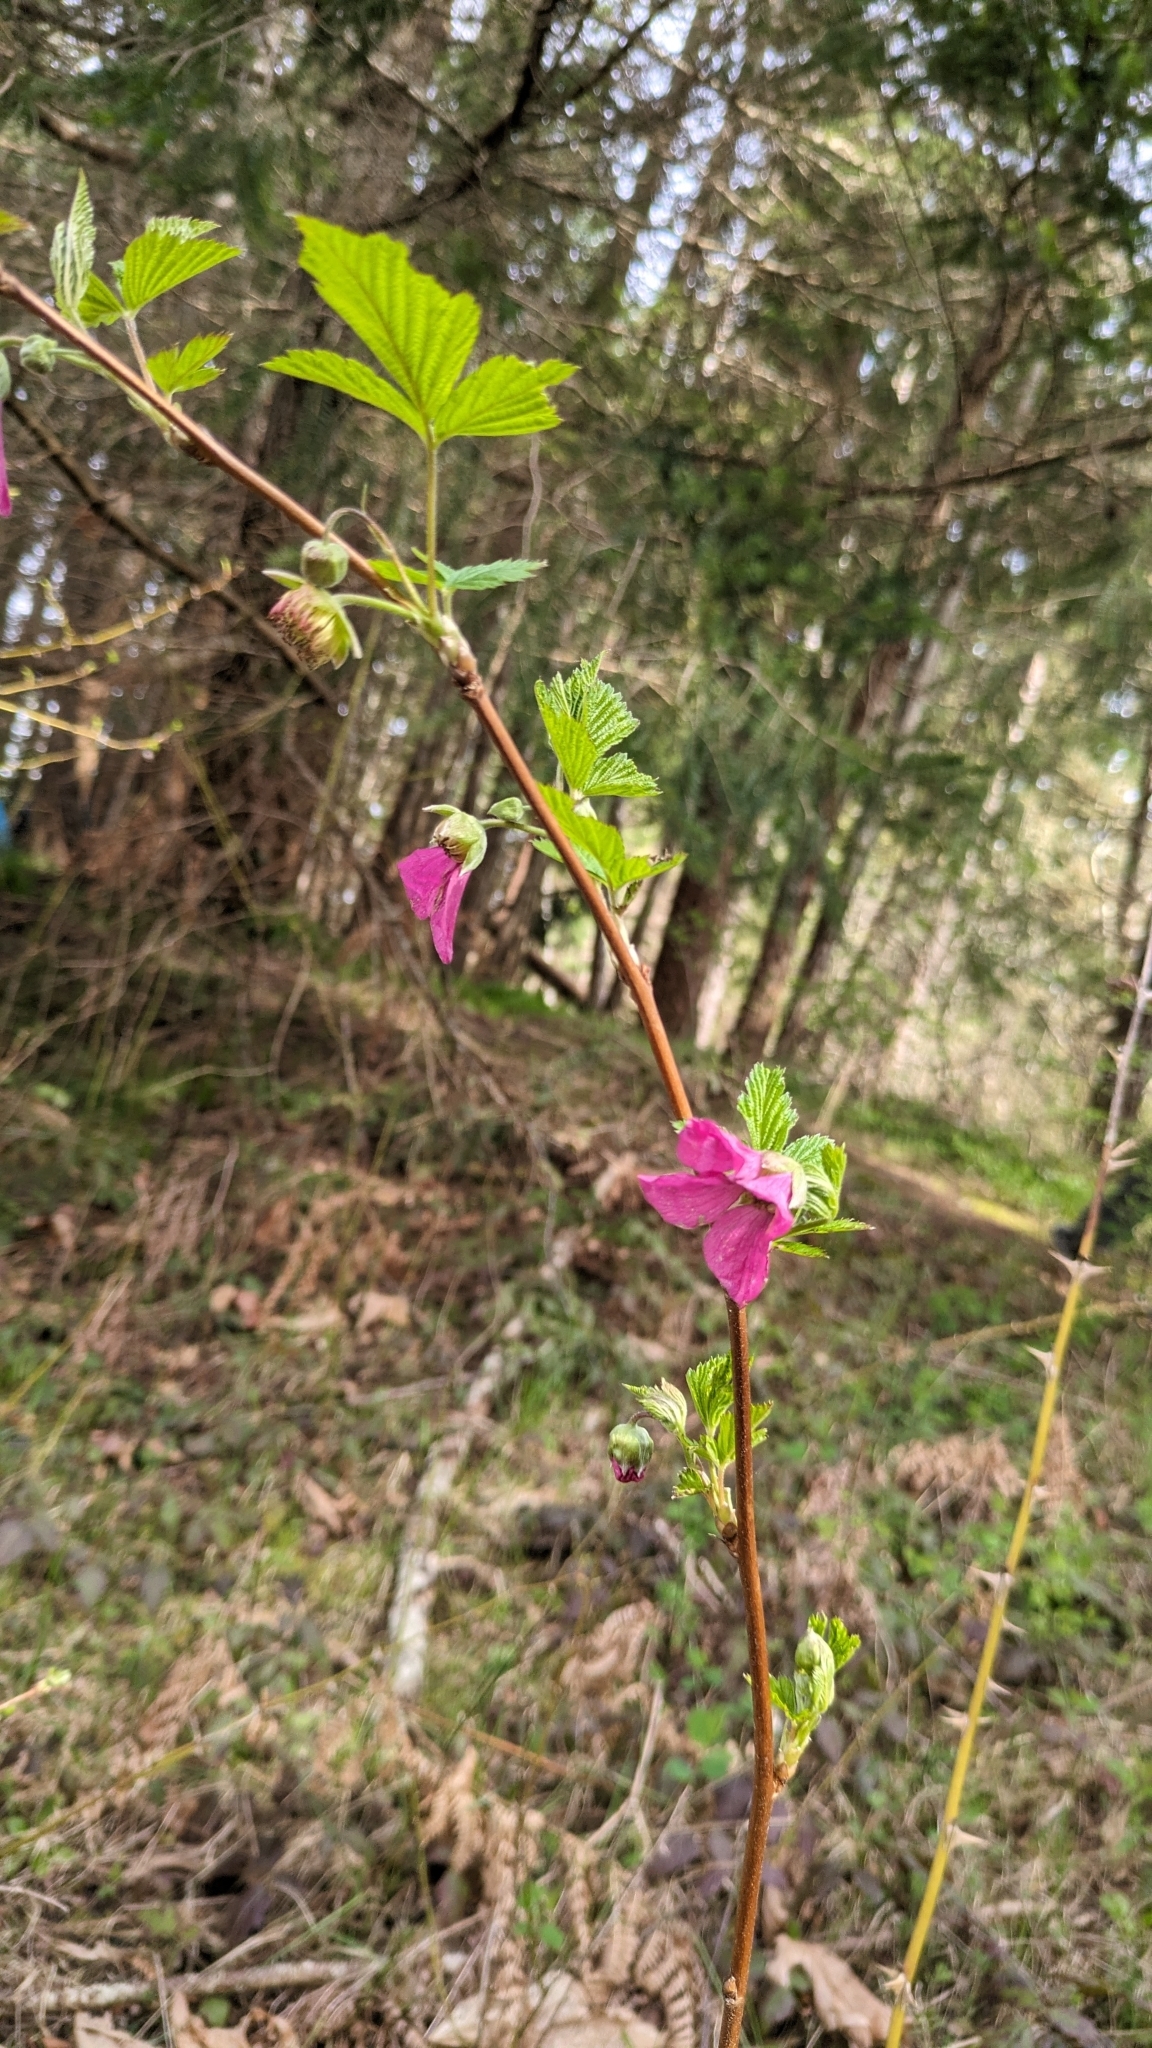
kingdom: Plantae
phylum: Tracheophyta
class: Magnoliopsida
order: Rosales
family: Rosaceae
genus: Rubus
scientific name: Rubus spectabilis
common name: Salmonberry
